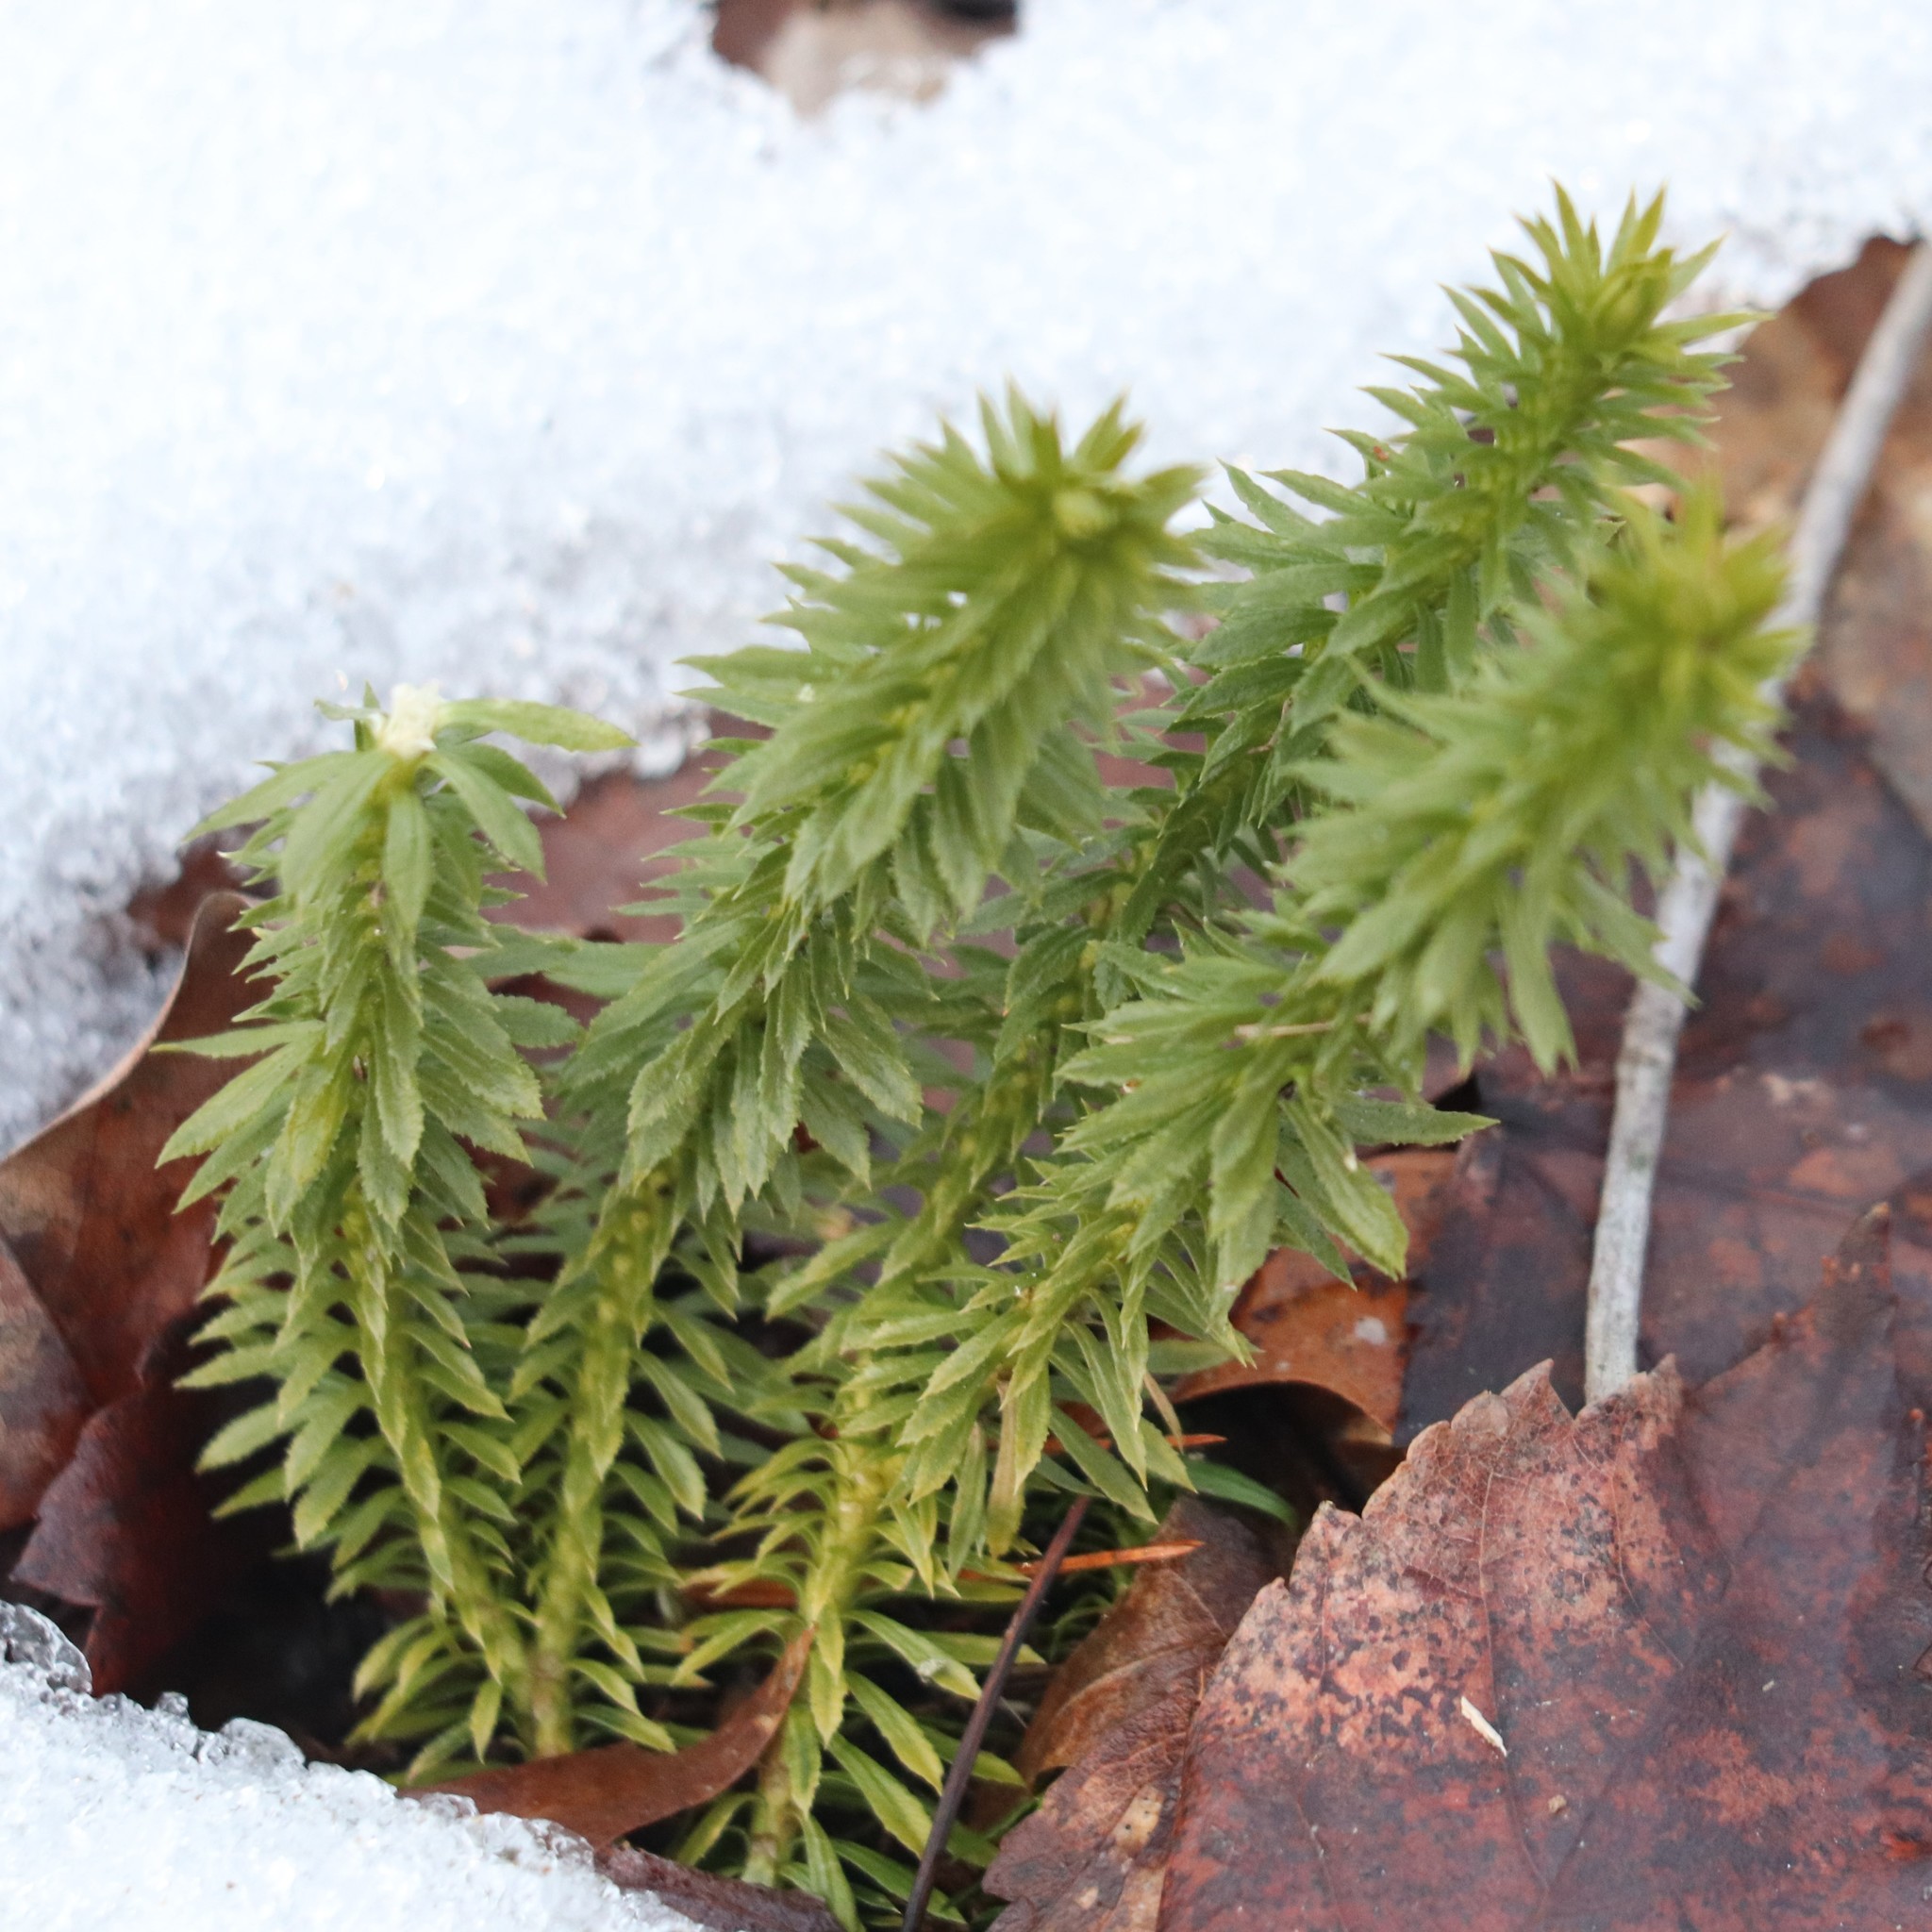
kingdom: Plantae
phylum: Tracheophyta
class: Lycopodiopsida
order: Lycopodiales
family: Lycopodiaceae
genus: Huperzia
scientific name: Huperzia lucidula
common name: Shining clubmoss
